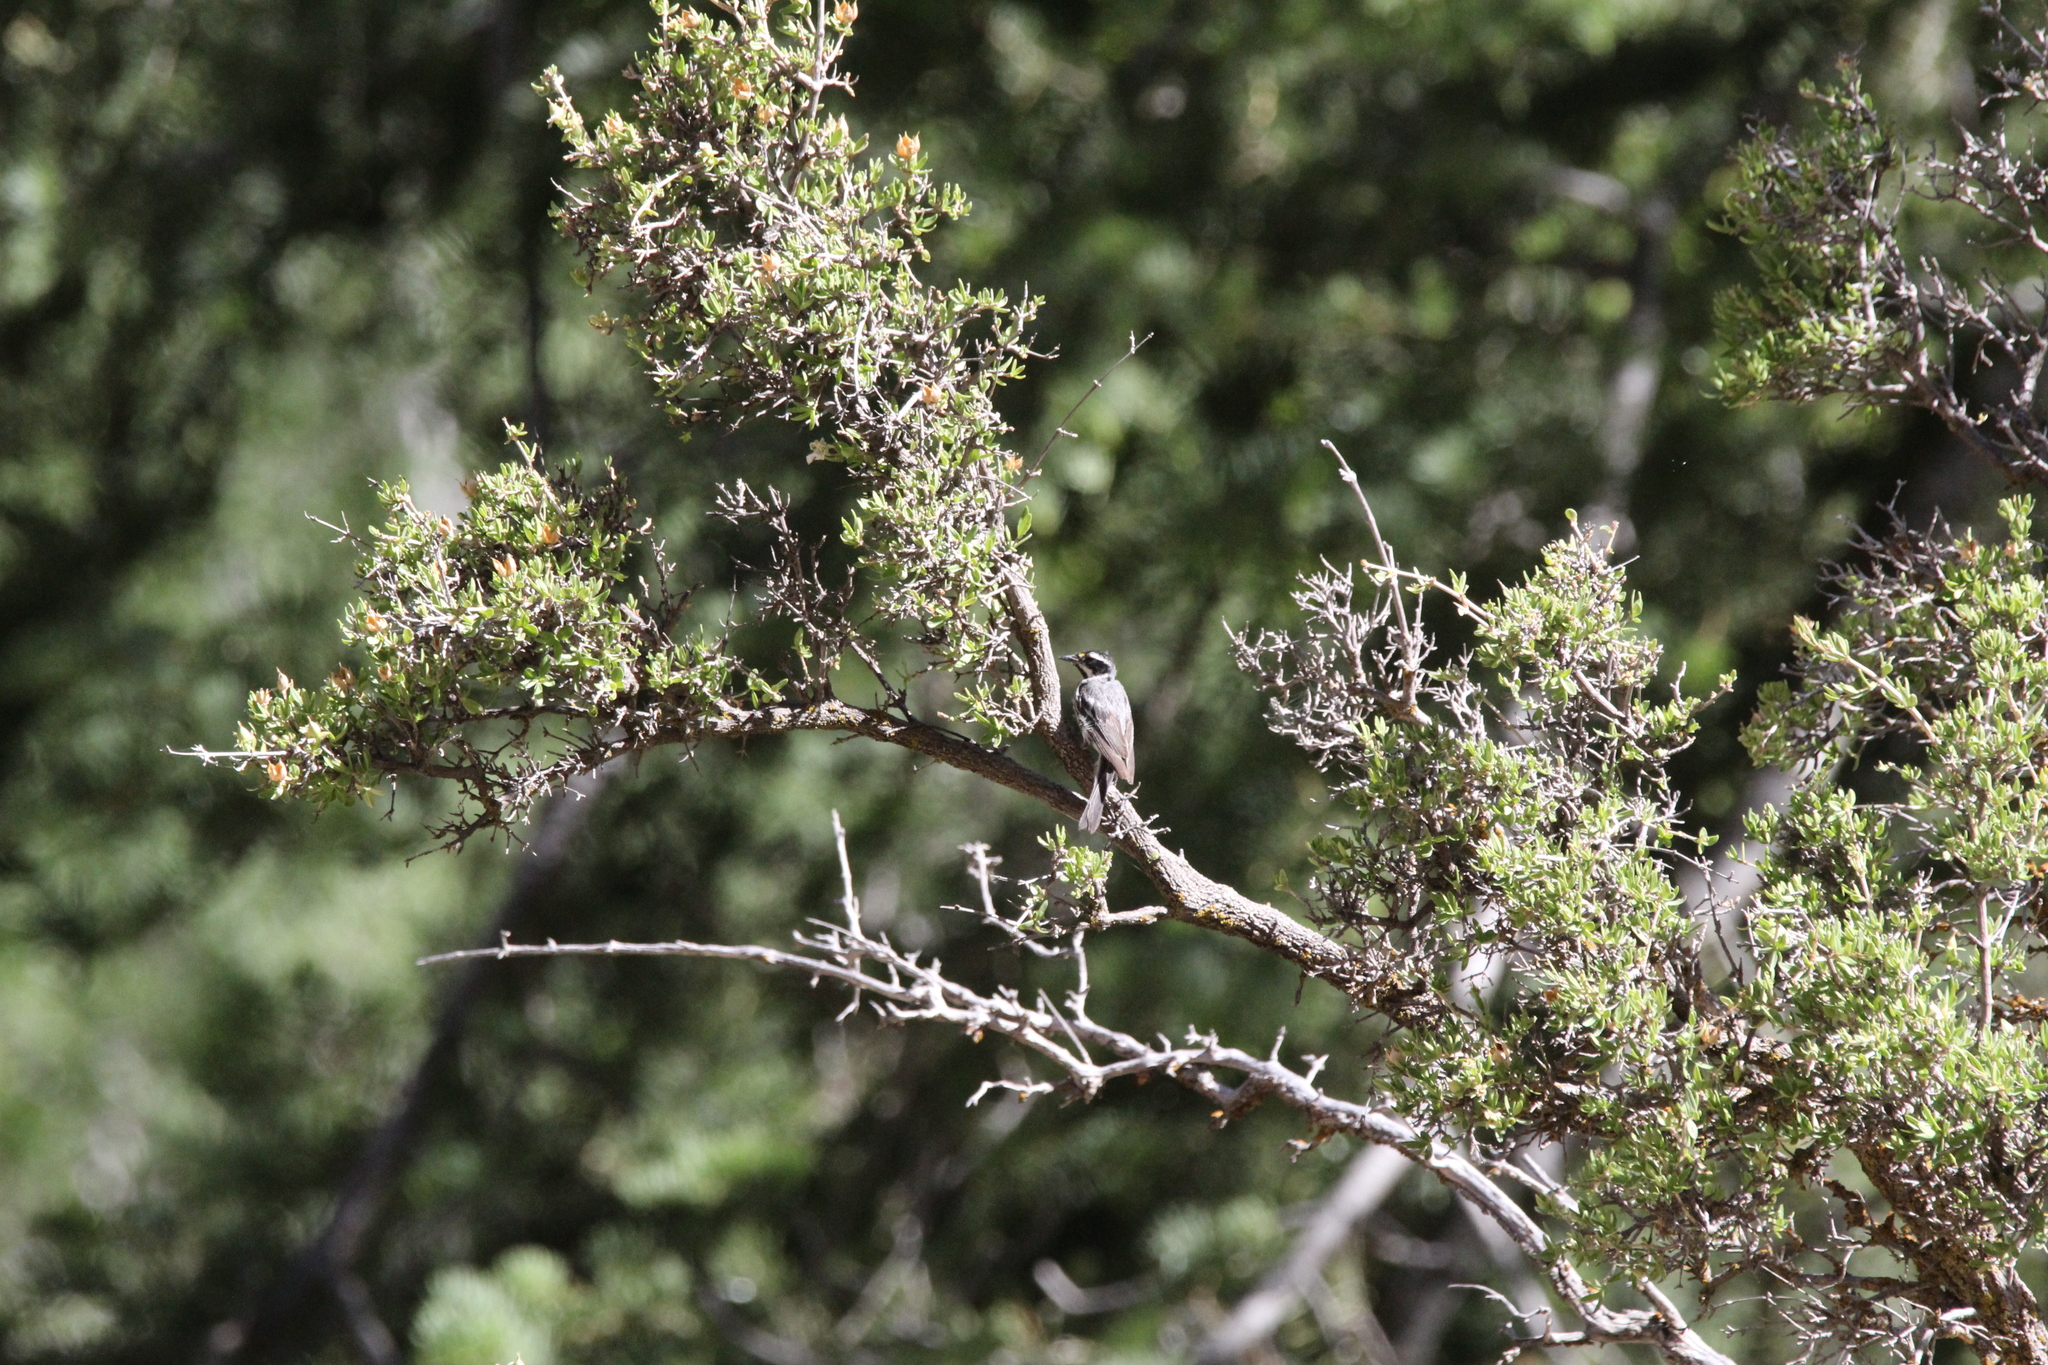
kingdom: Animalia
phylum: Chordata
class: Aves
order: Passeriformes
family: Parulidae
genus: Setophaga
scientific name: Setophaga nigrescens
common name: Black-throated gray warbler
